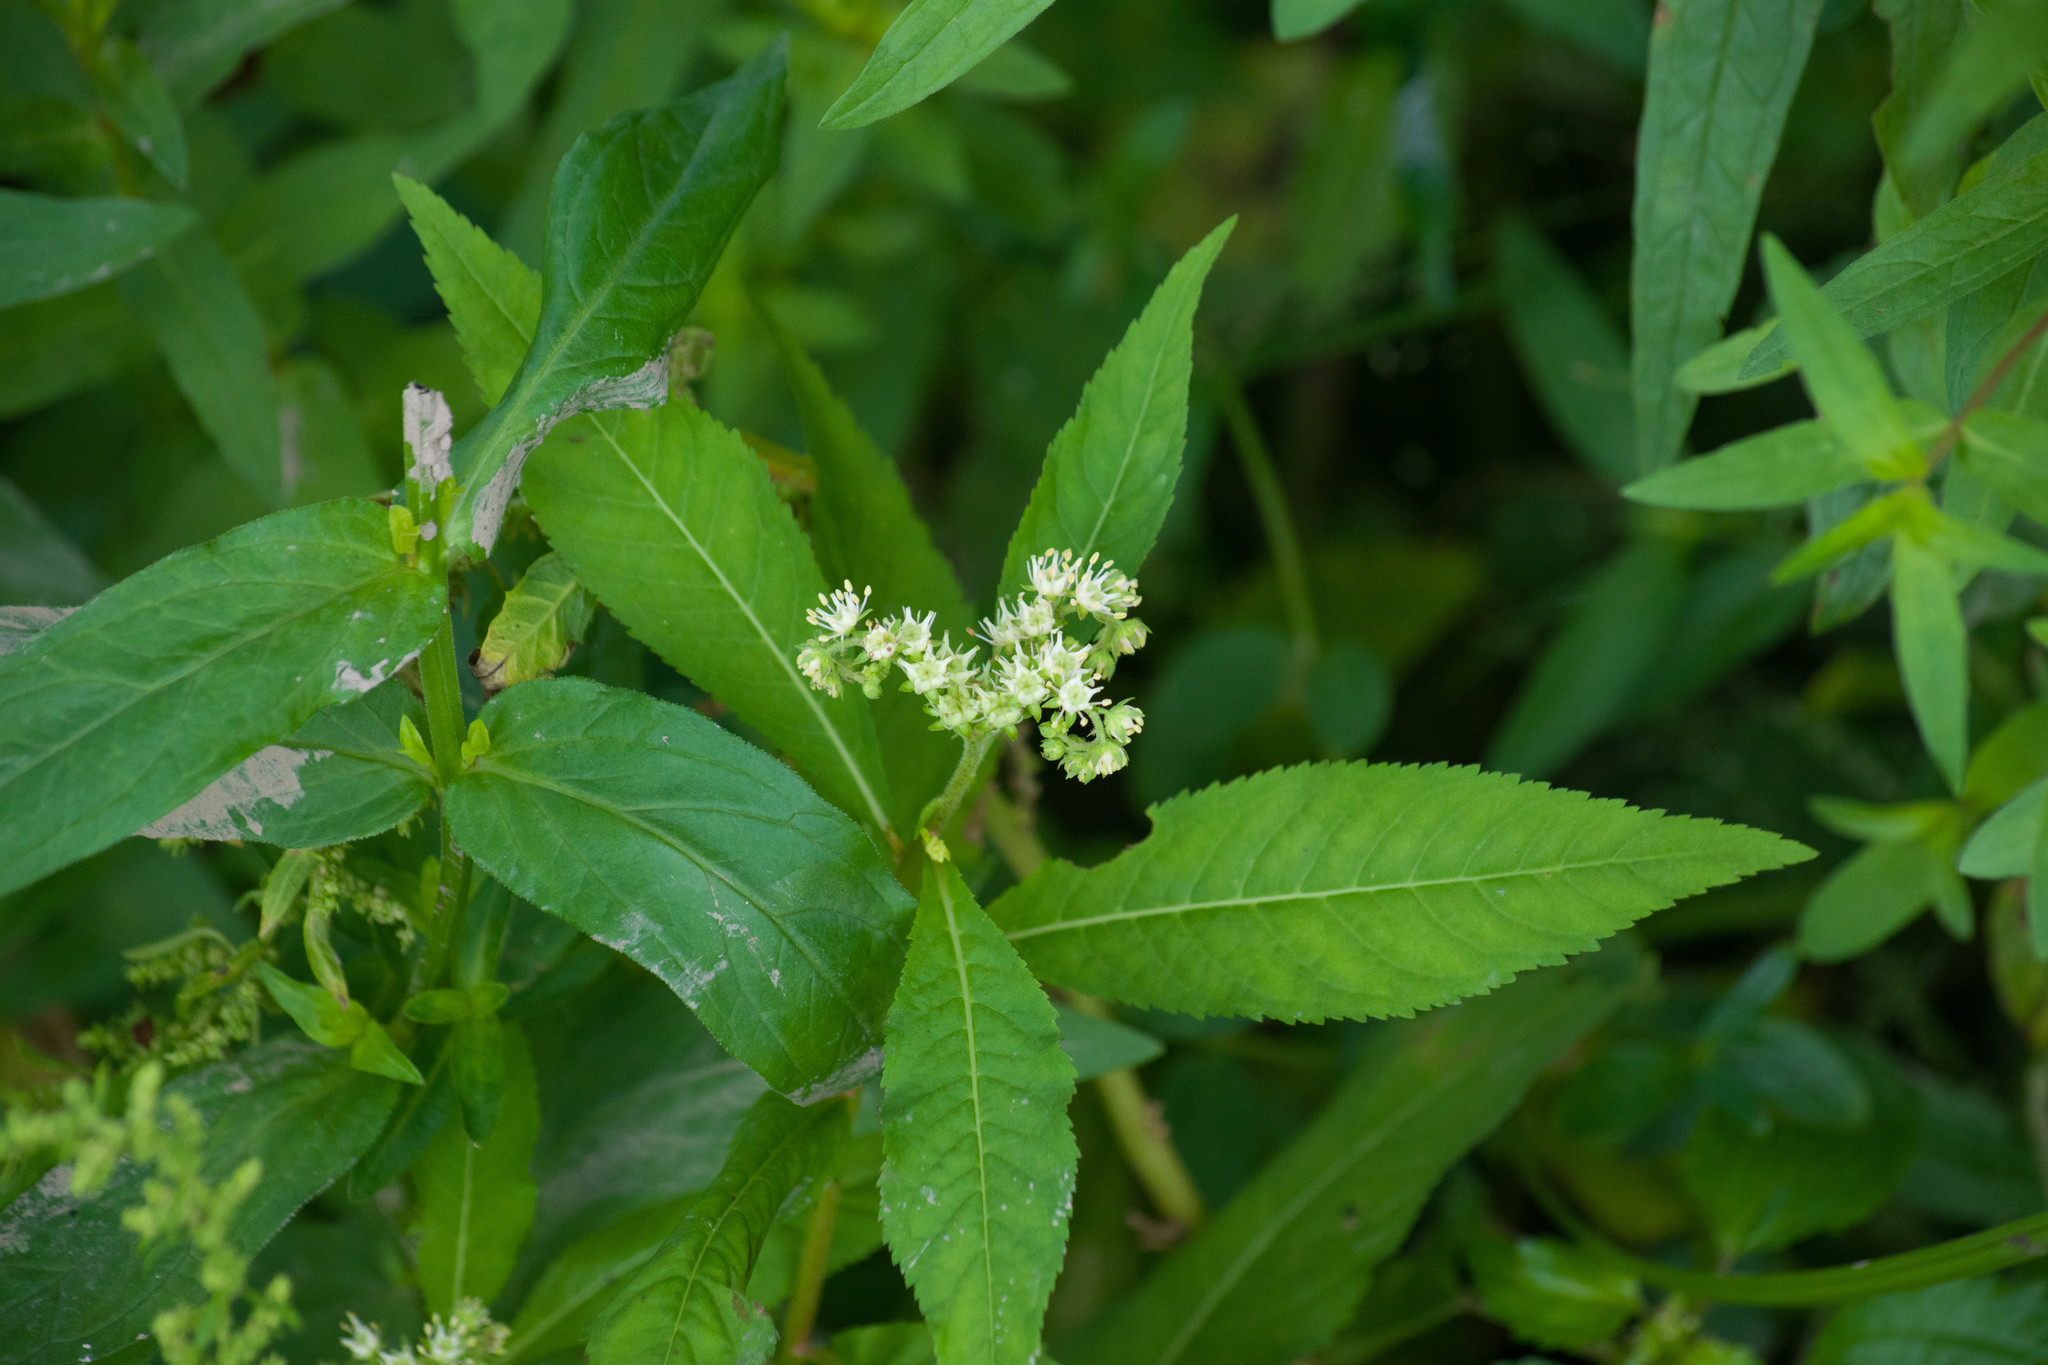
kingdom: Plantae
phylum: Tracheophyta
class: Magnoliopsida
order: Saxifragales
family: Penthoraceae
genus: Penthorum
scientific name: Penthorum sedoides
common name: Ditch stonecrop
